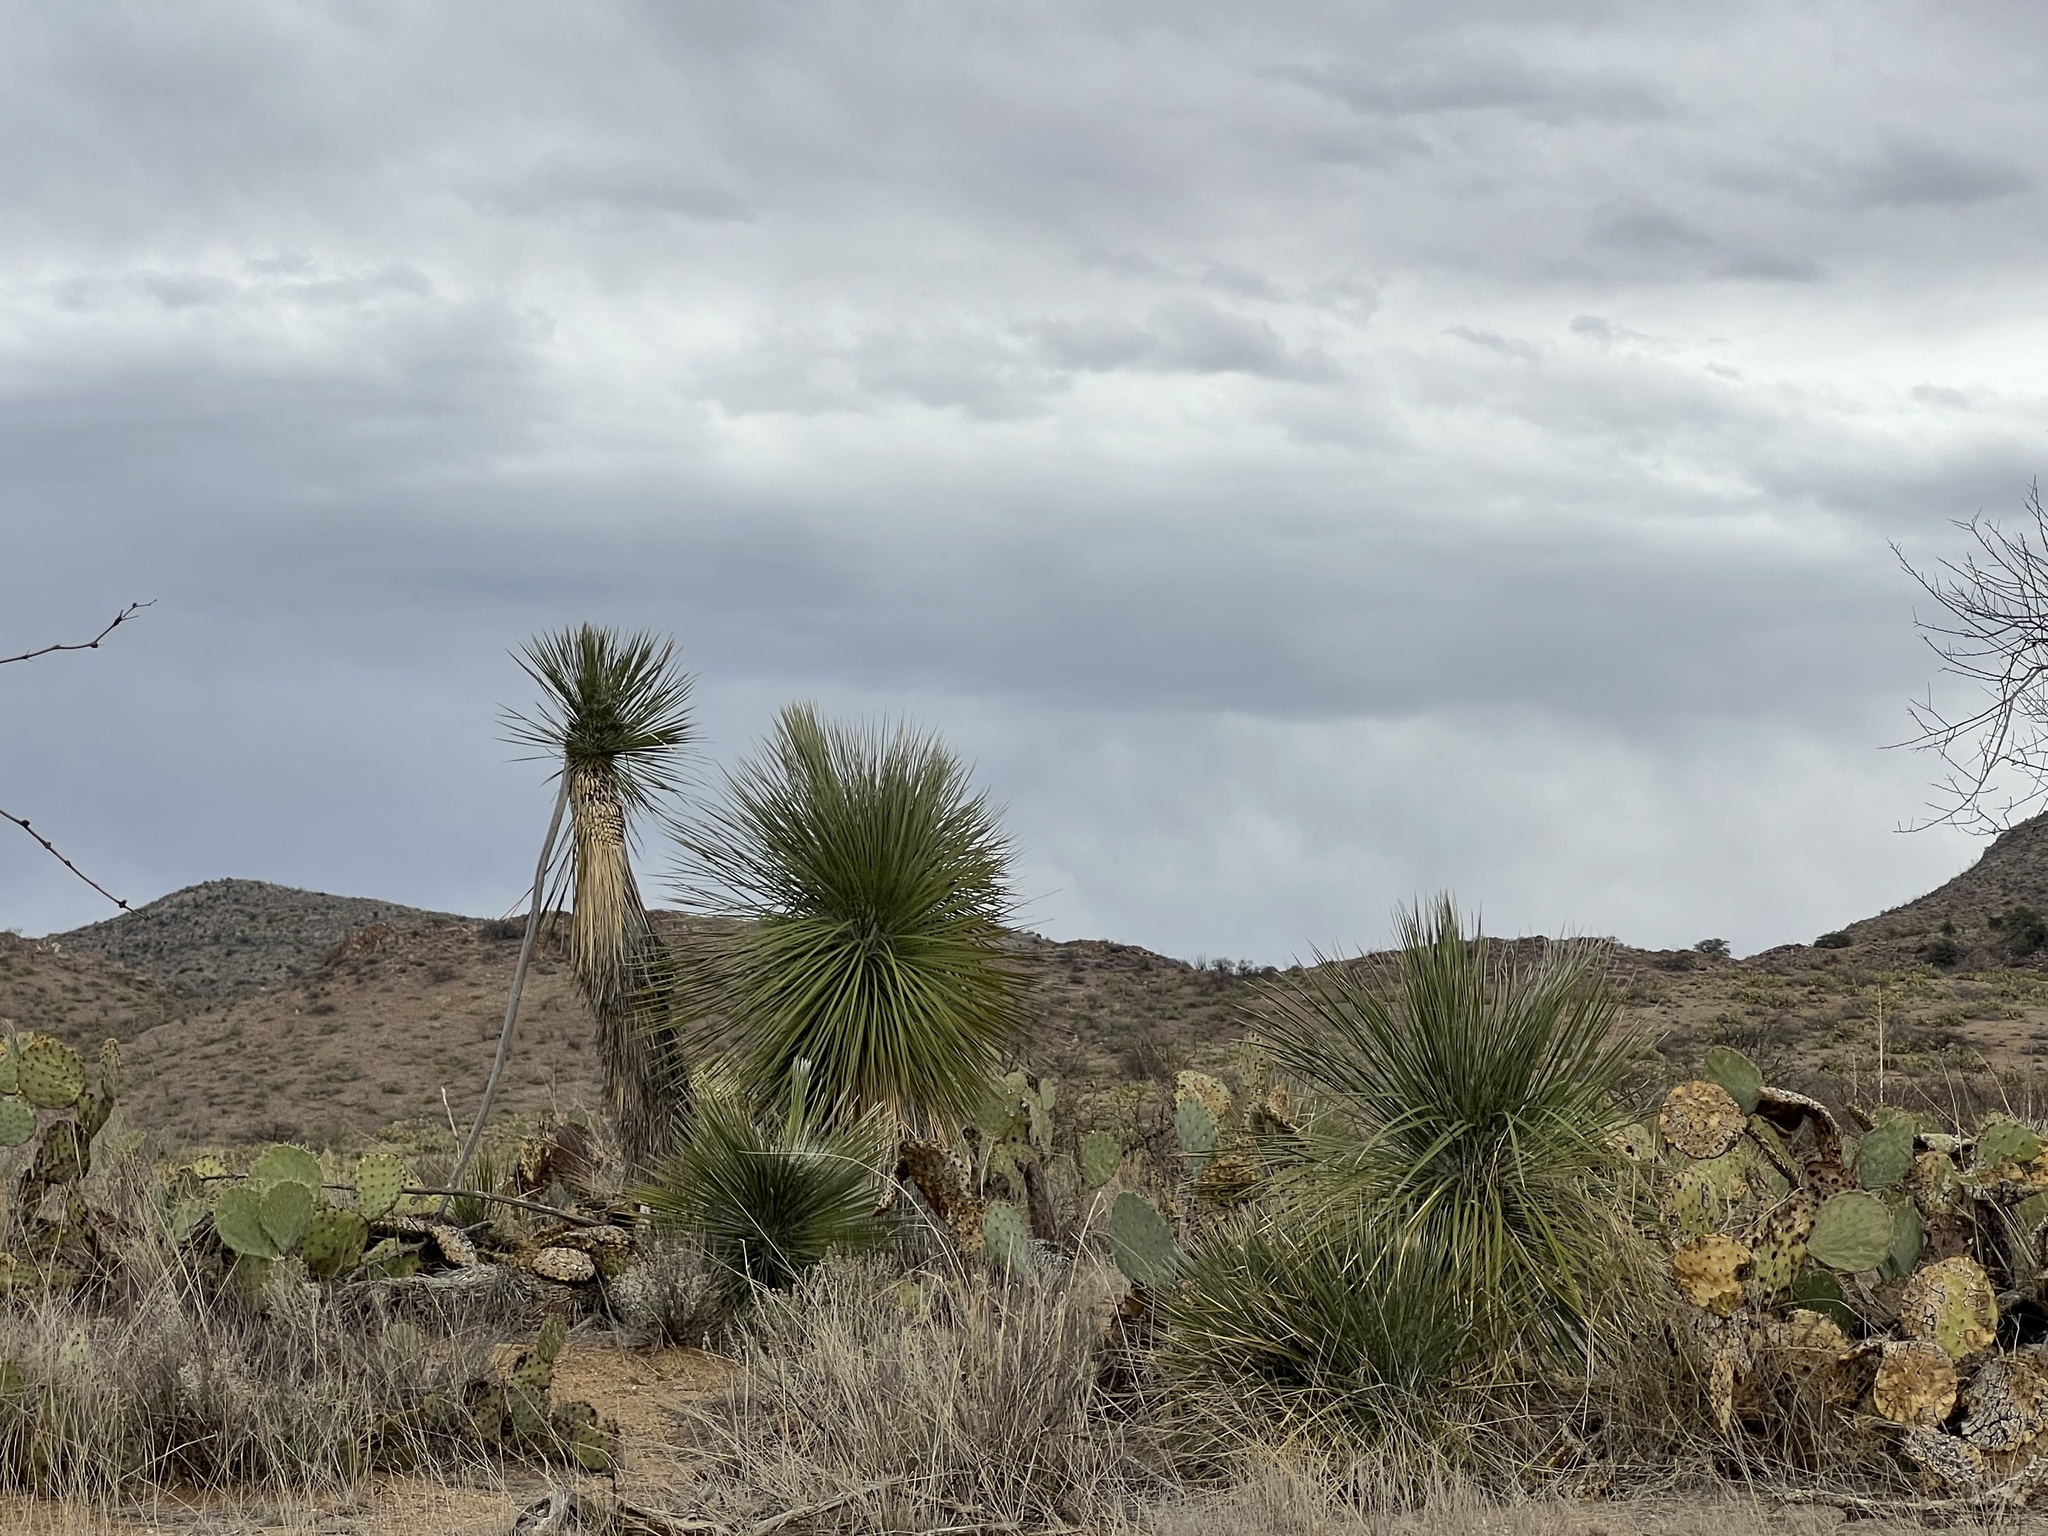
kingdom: Plantae
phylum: Tracheophyta
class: Liliopsida
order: Asparagales
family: Asparagaceae
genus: Yucca
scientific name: Yucca elata
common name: Palmella
